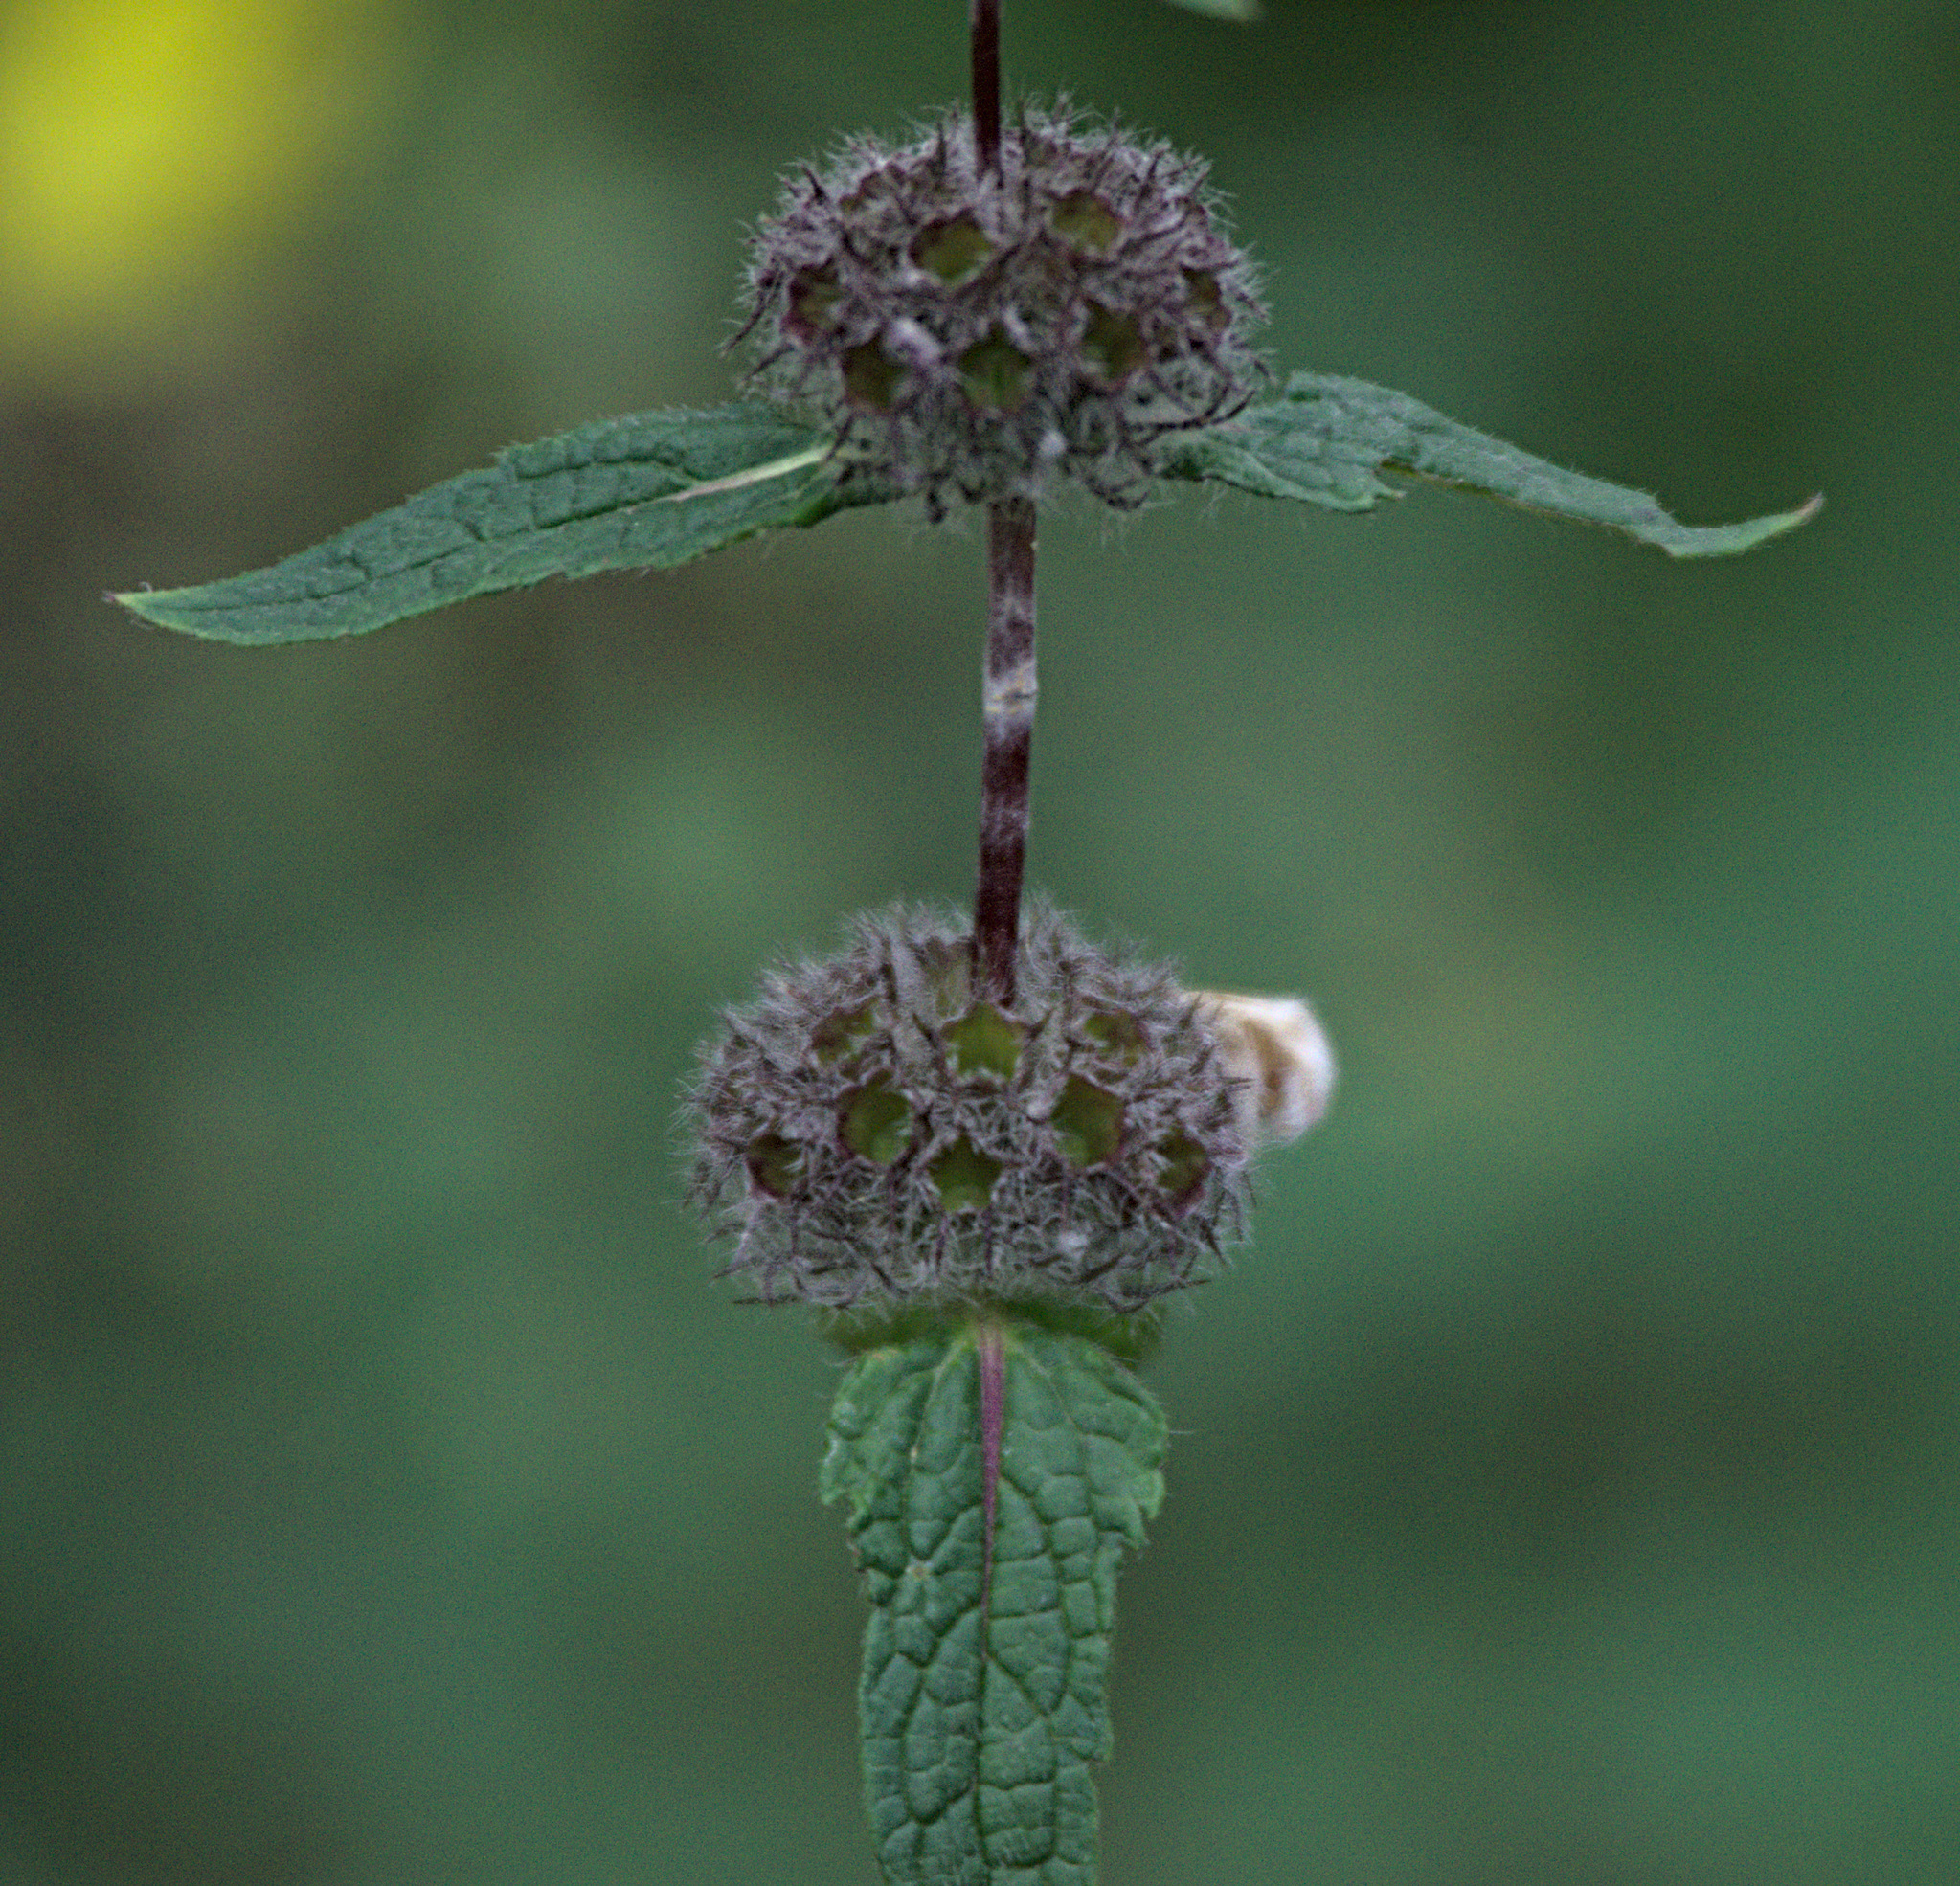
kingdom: Plantae
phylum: Tracheophyta
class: Magnoliopsida
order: Lamiales
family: Lamiaceae
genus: Phlomoides
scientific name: Phlomoides tuberosa
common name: Tuberous jerusalem sage
